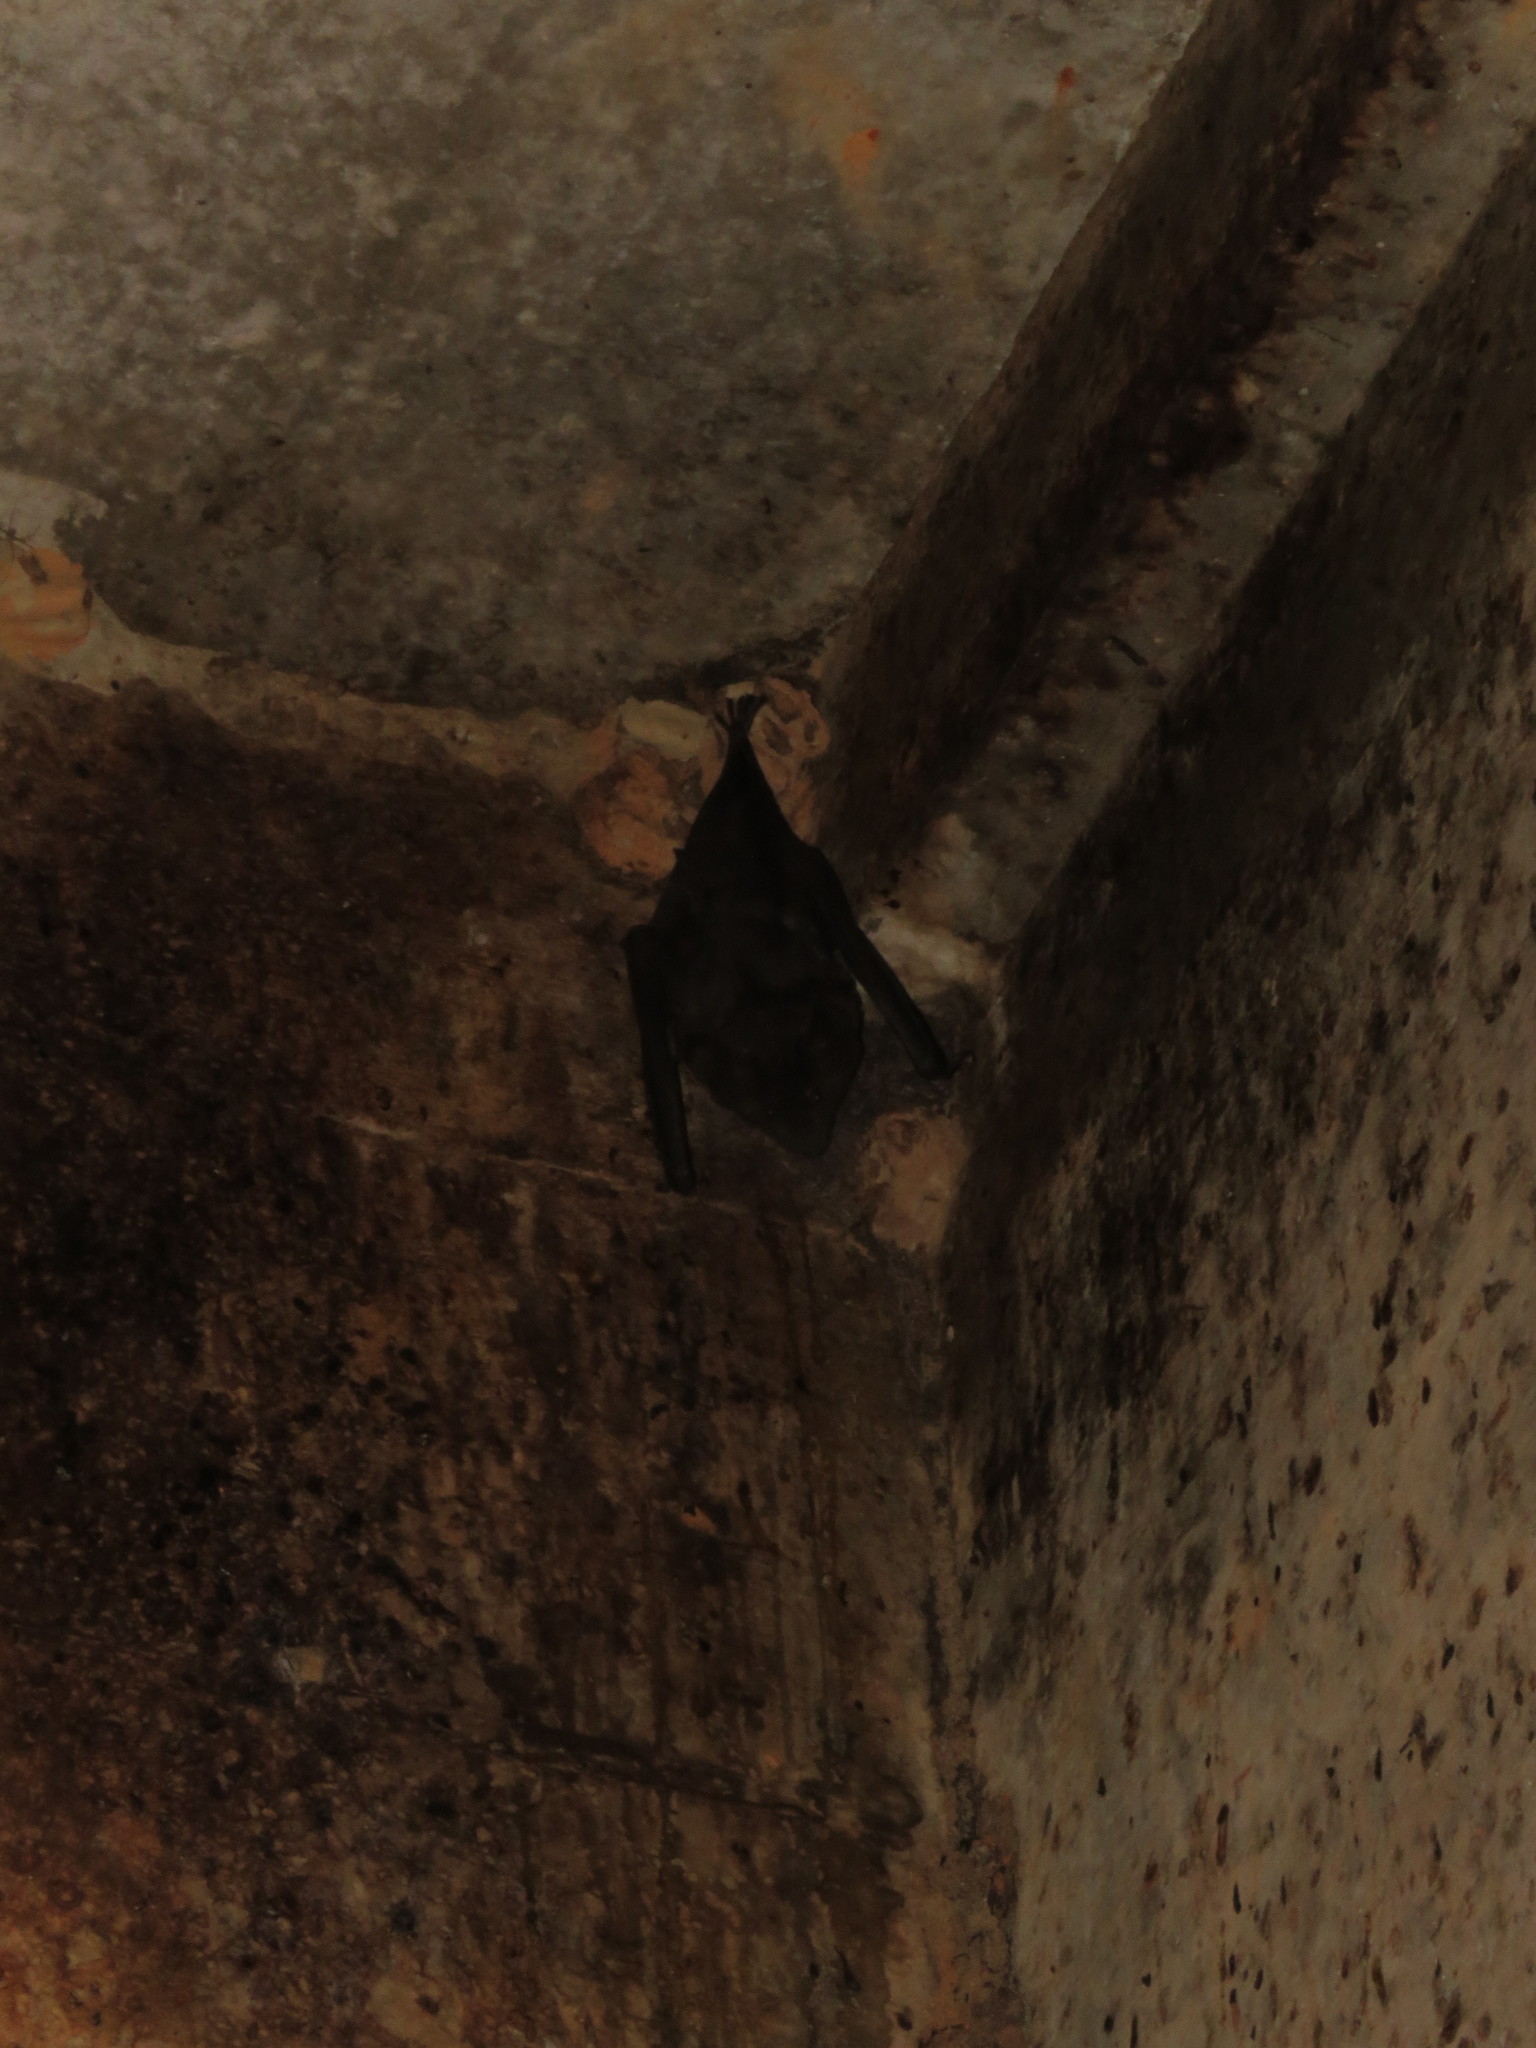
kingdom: Animalia
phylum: Chordata
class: Mammalia
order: Chiroptera
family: Phyllostomidae
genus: Phyllostomus
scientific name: Phyllostomus hastatus
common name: Greater spear-nosed bat
